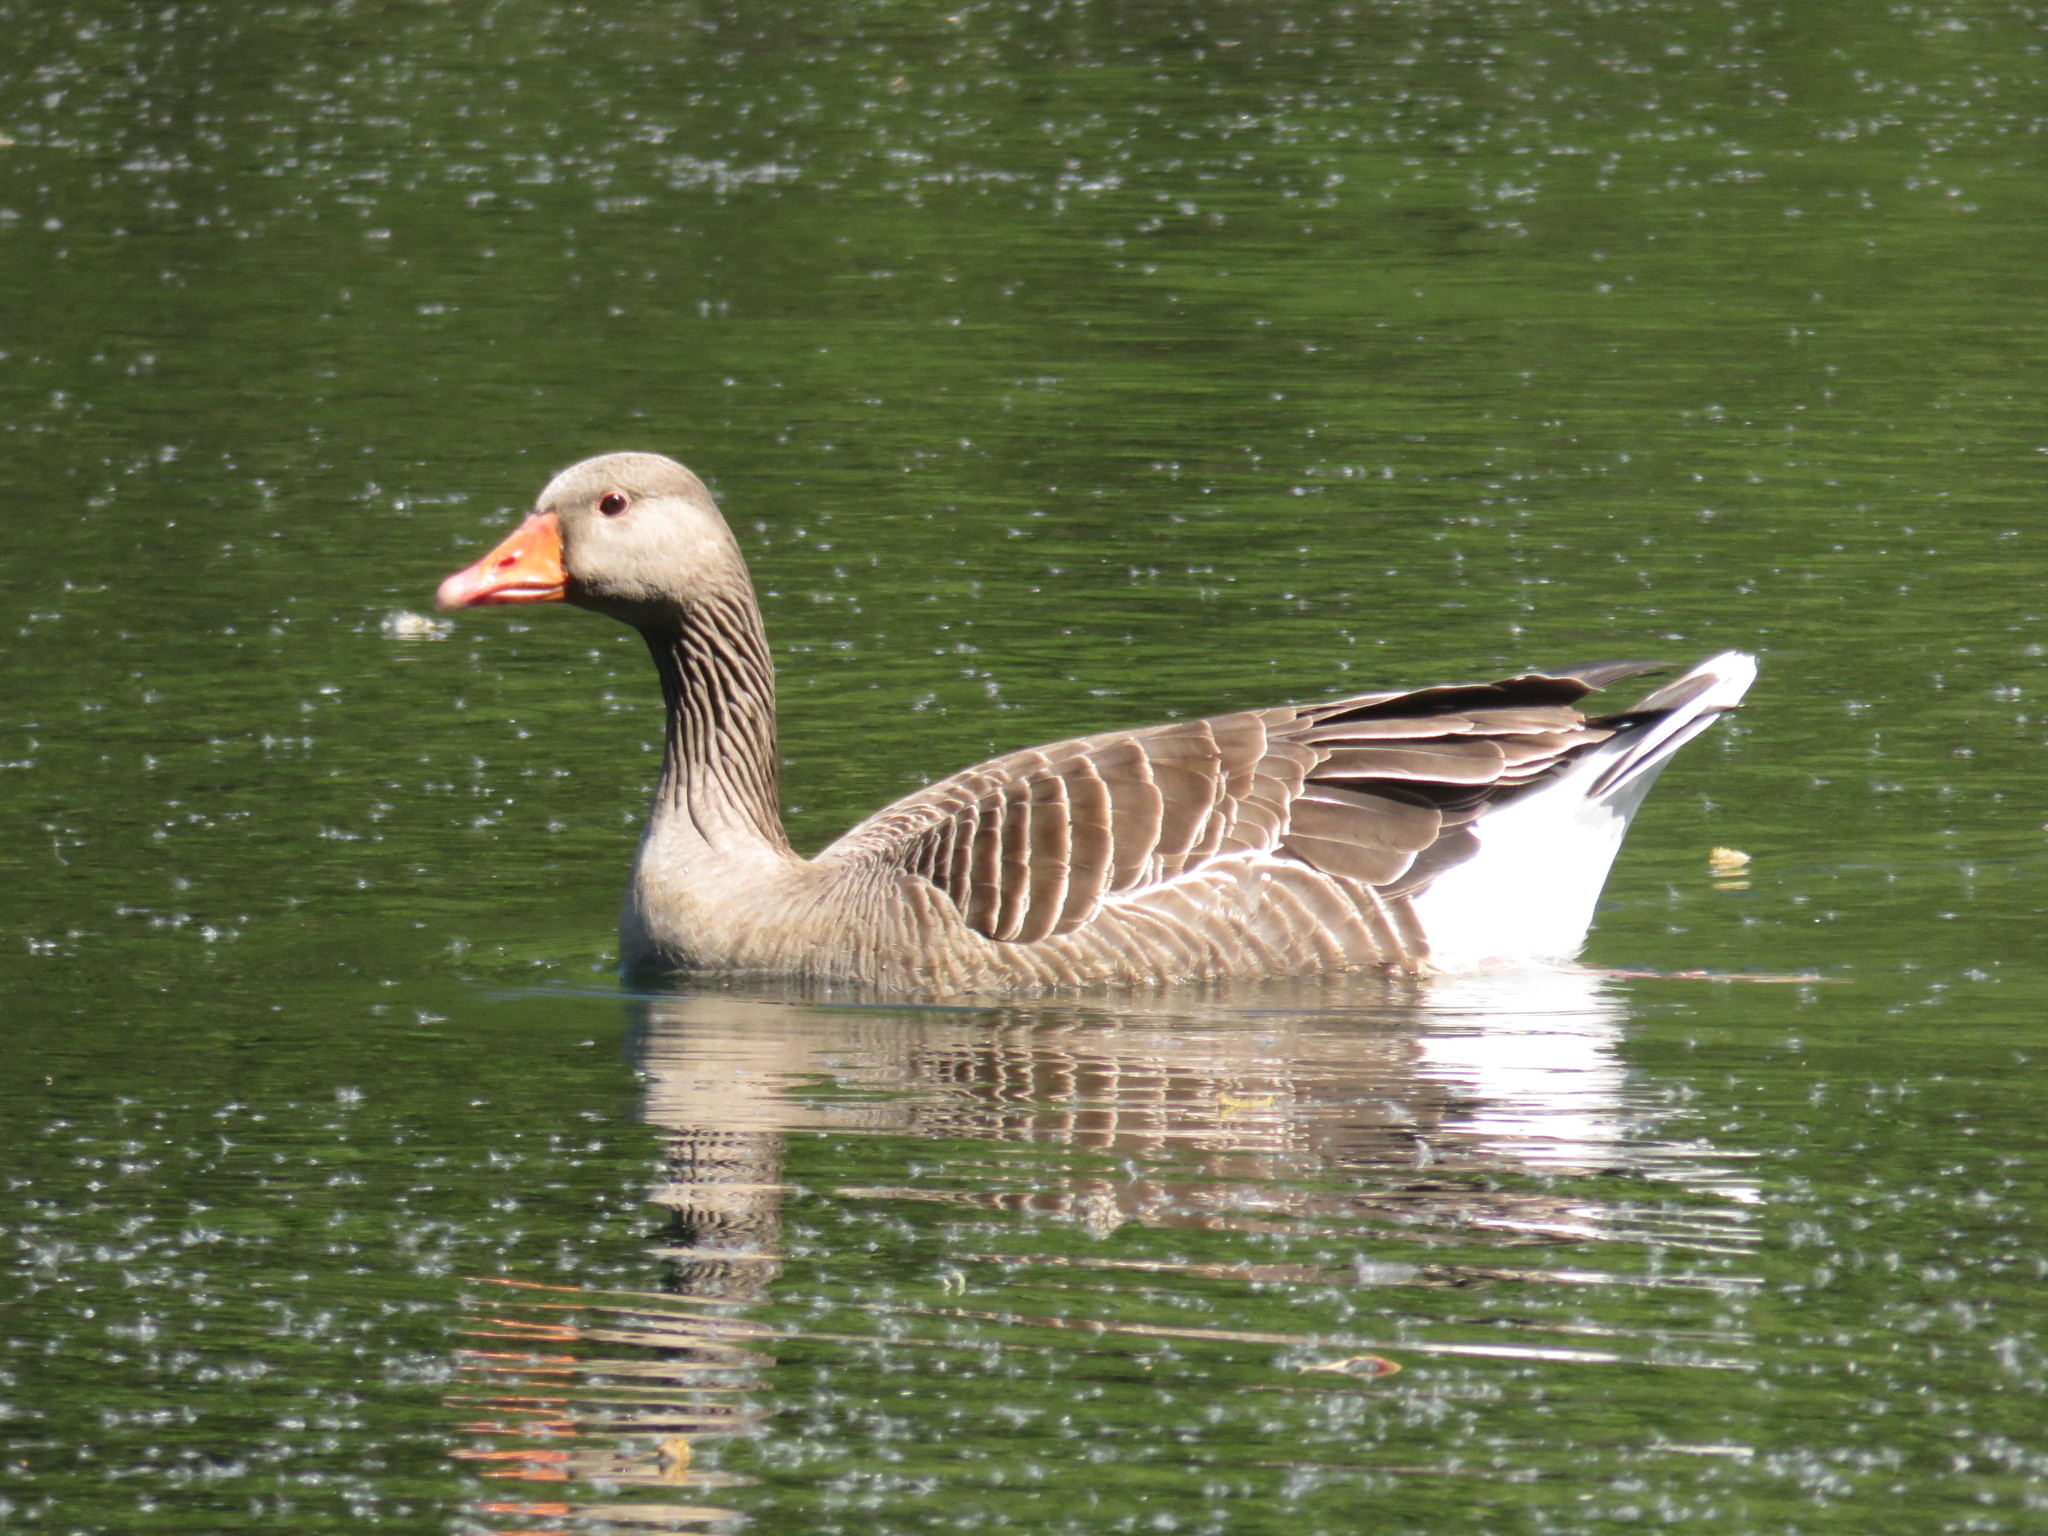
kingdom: Animalia
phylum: Chordata
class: Aves
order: Anseriformes
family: Anatidae
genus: Anser
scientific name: Anser anser
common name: Greylag goose
